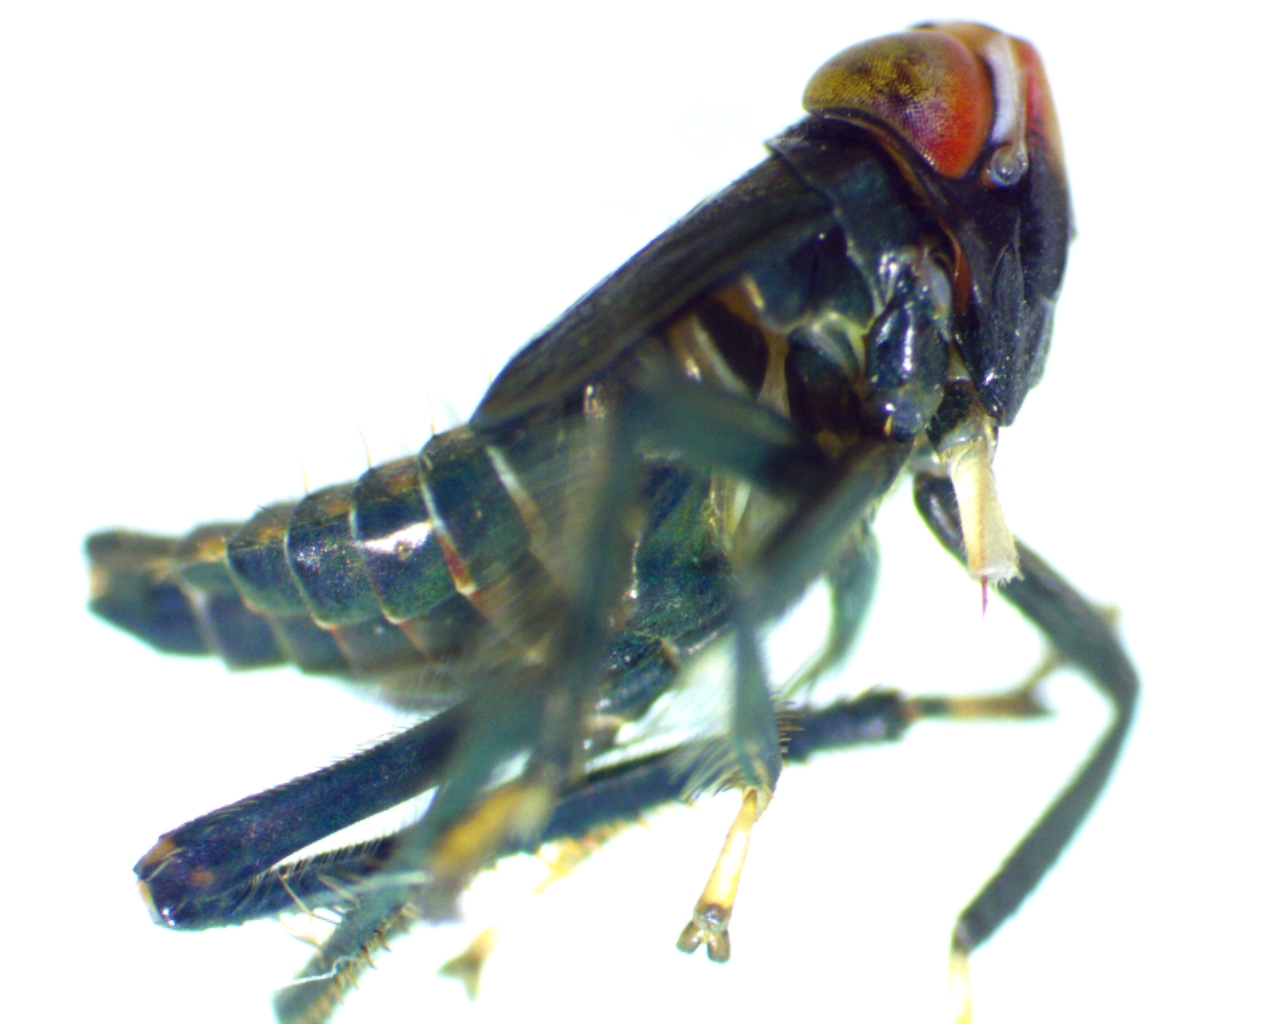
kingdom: Animalia
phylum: Arthropoda
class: Insecta
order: Hemiptera
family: Cicadellidae
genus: Jikradia
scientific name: Jikradia olitoria
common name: Coppery leafhopper
